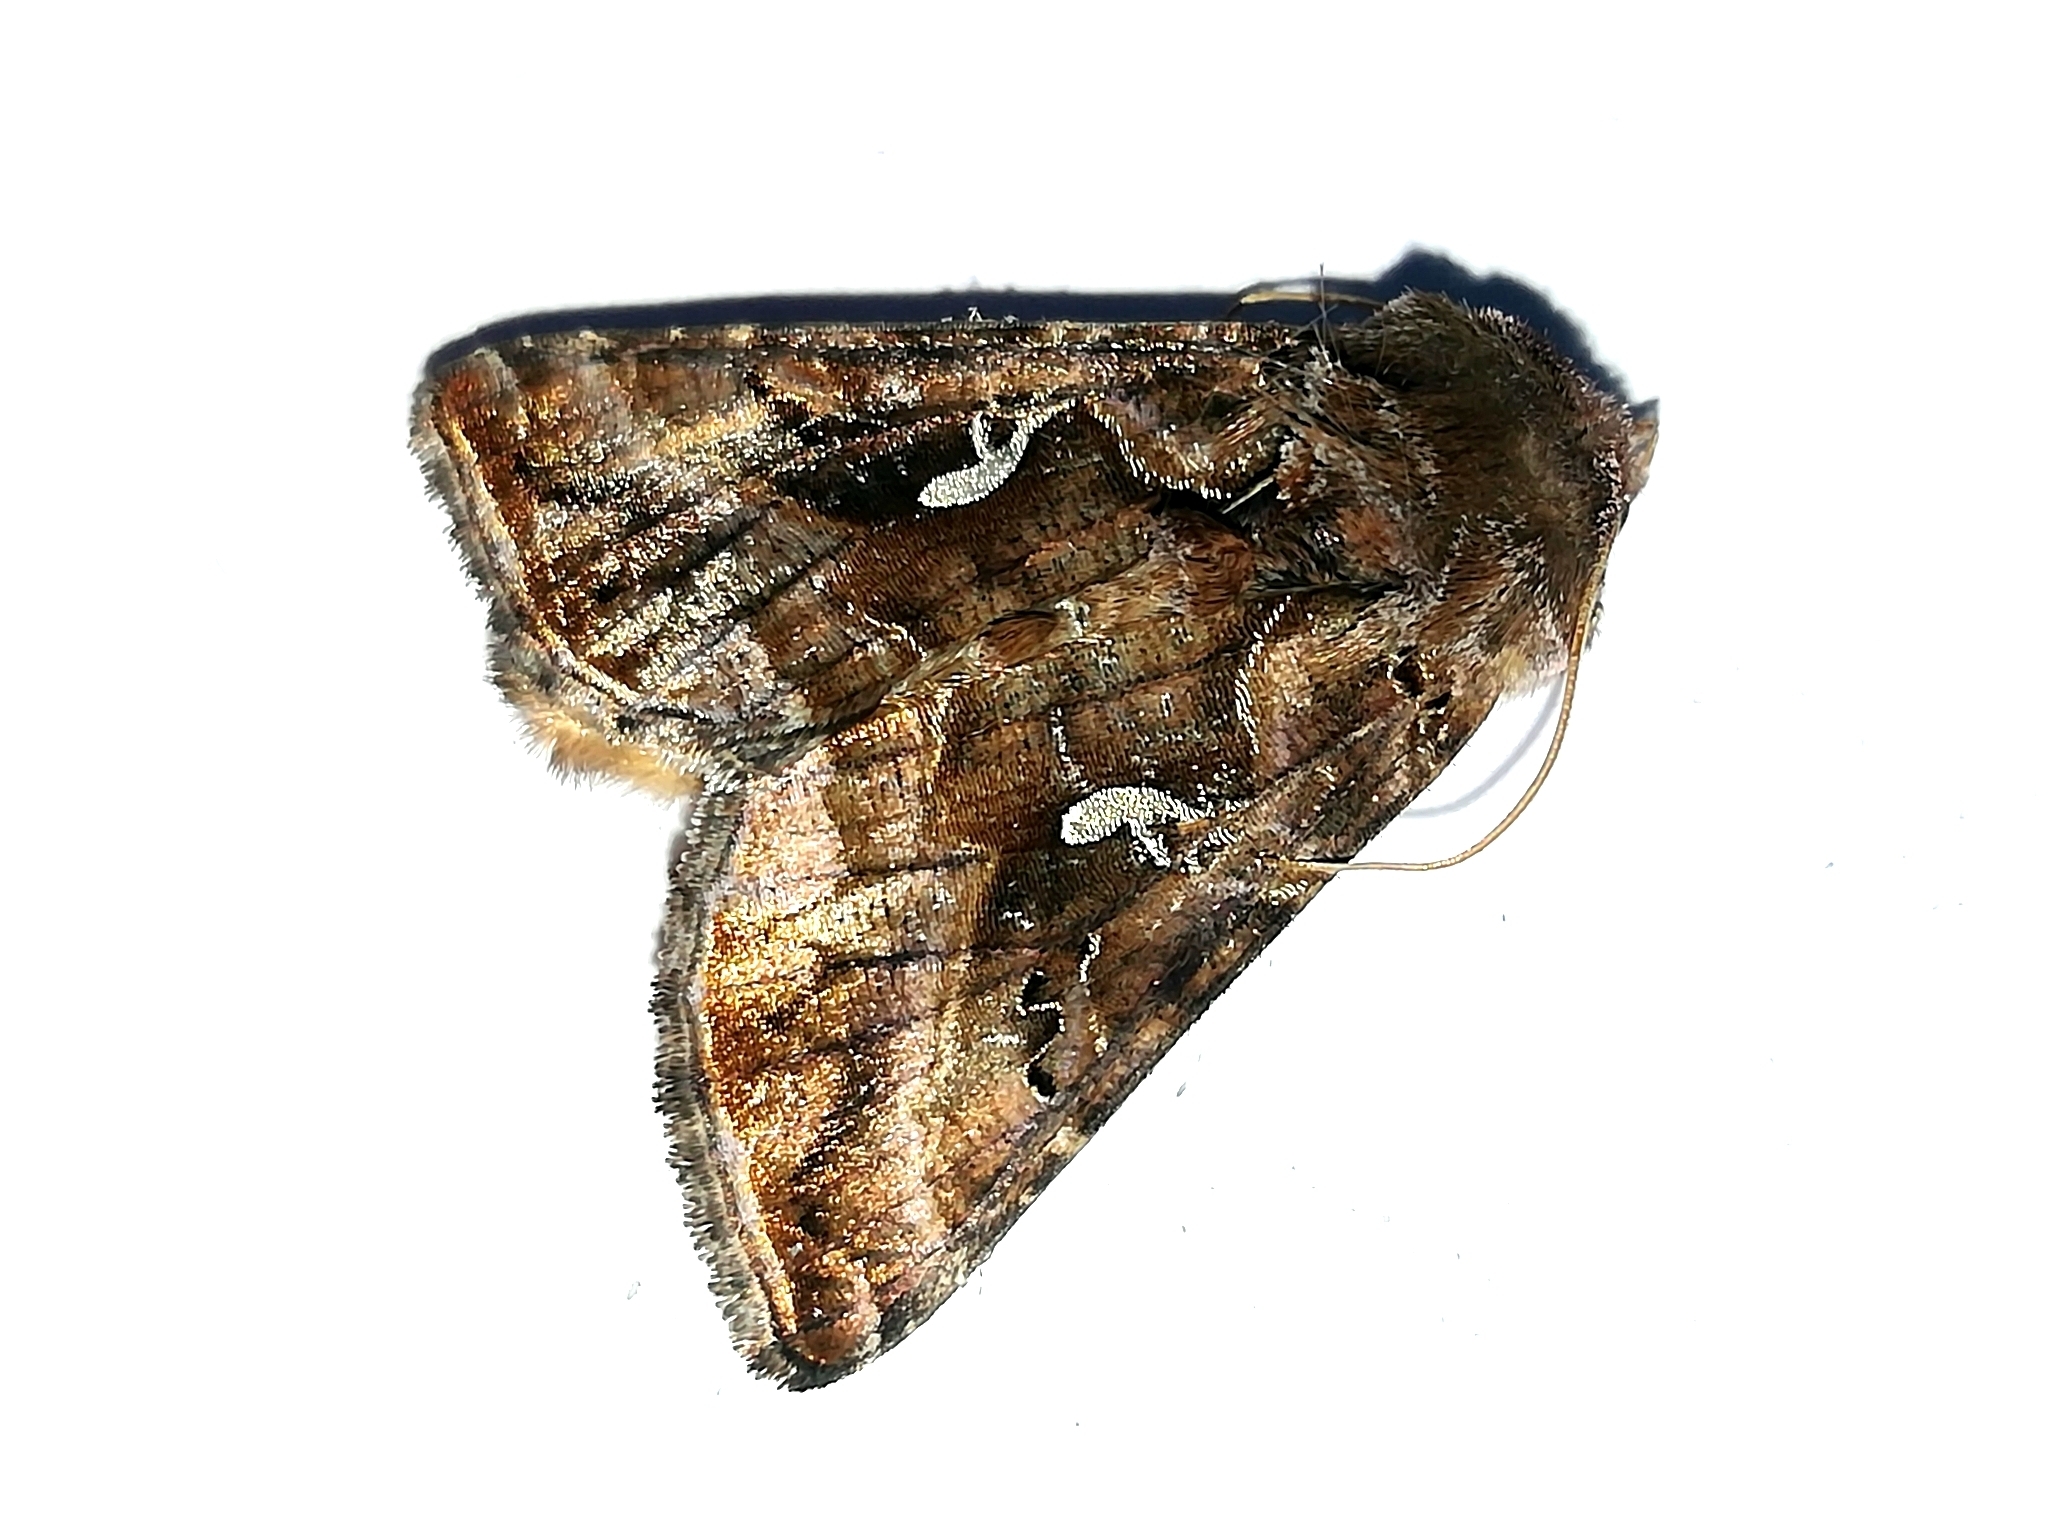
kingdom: Animalia
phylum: Arthropoda
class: Insecta
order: Lepidoptera
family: Noctuidae
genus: Autographa
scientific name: Autographa mandarina
